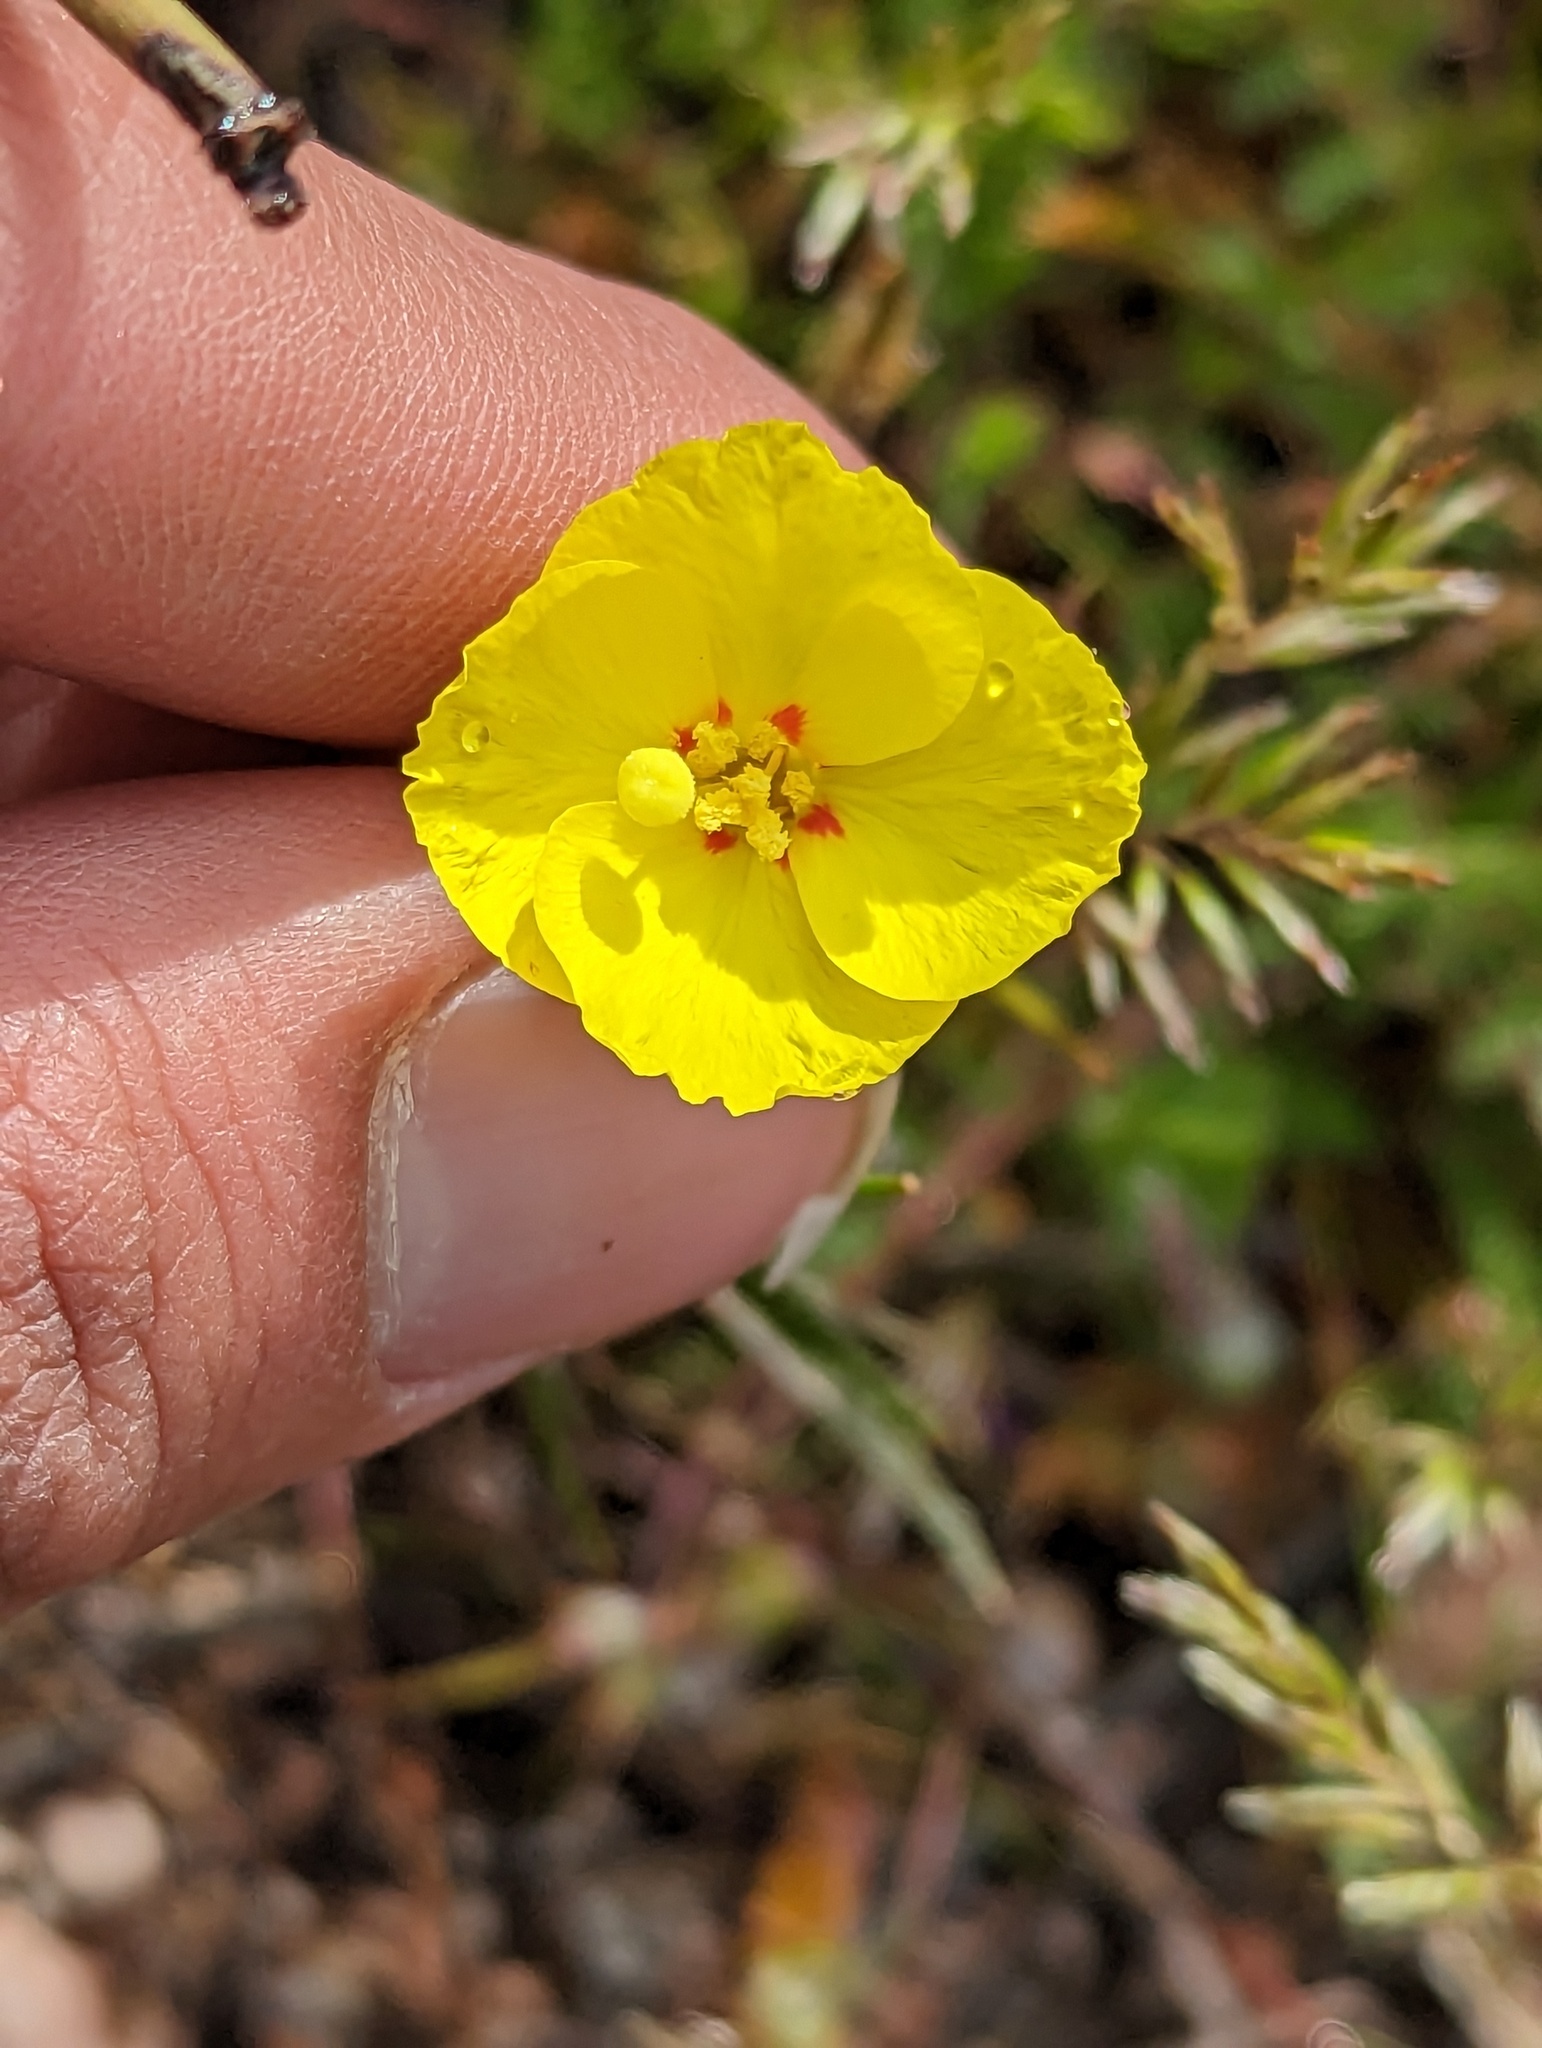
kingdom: Plantae
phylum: Tracheophyta
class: Magnoliopsida
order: Myrtales
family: Onagraceae
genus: Camissonia
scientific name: Camissonia campestris
